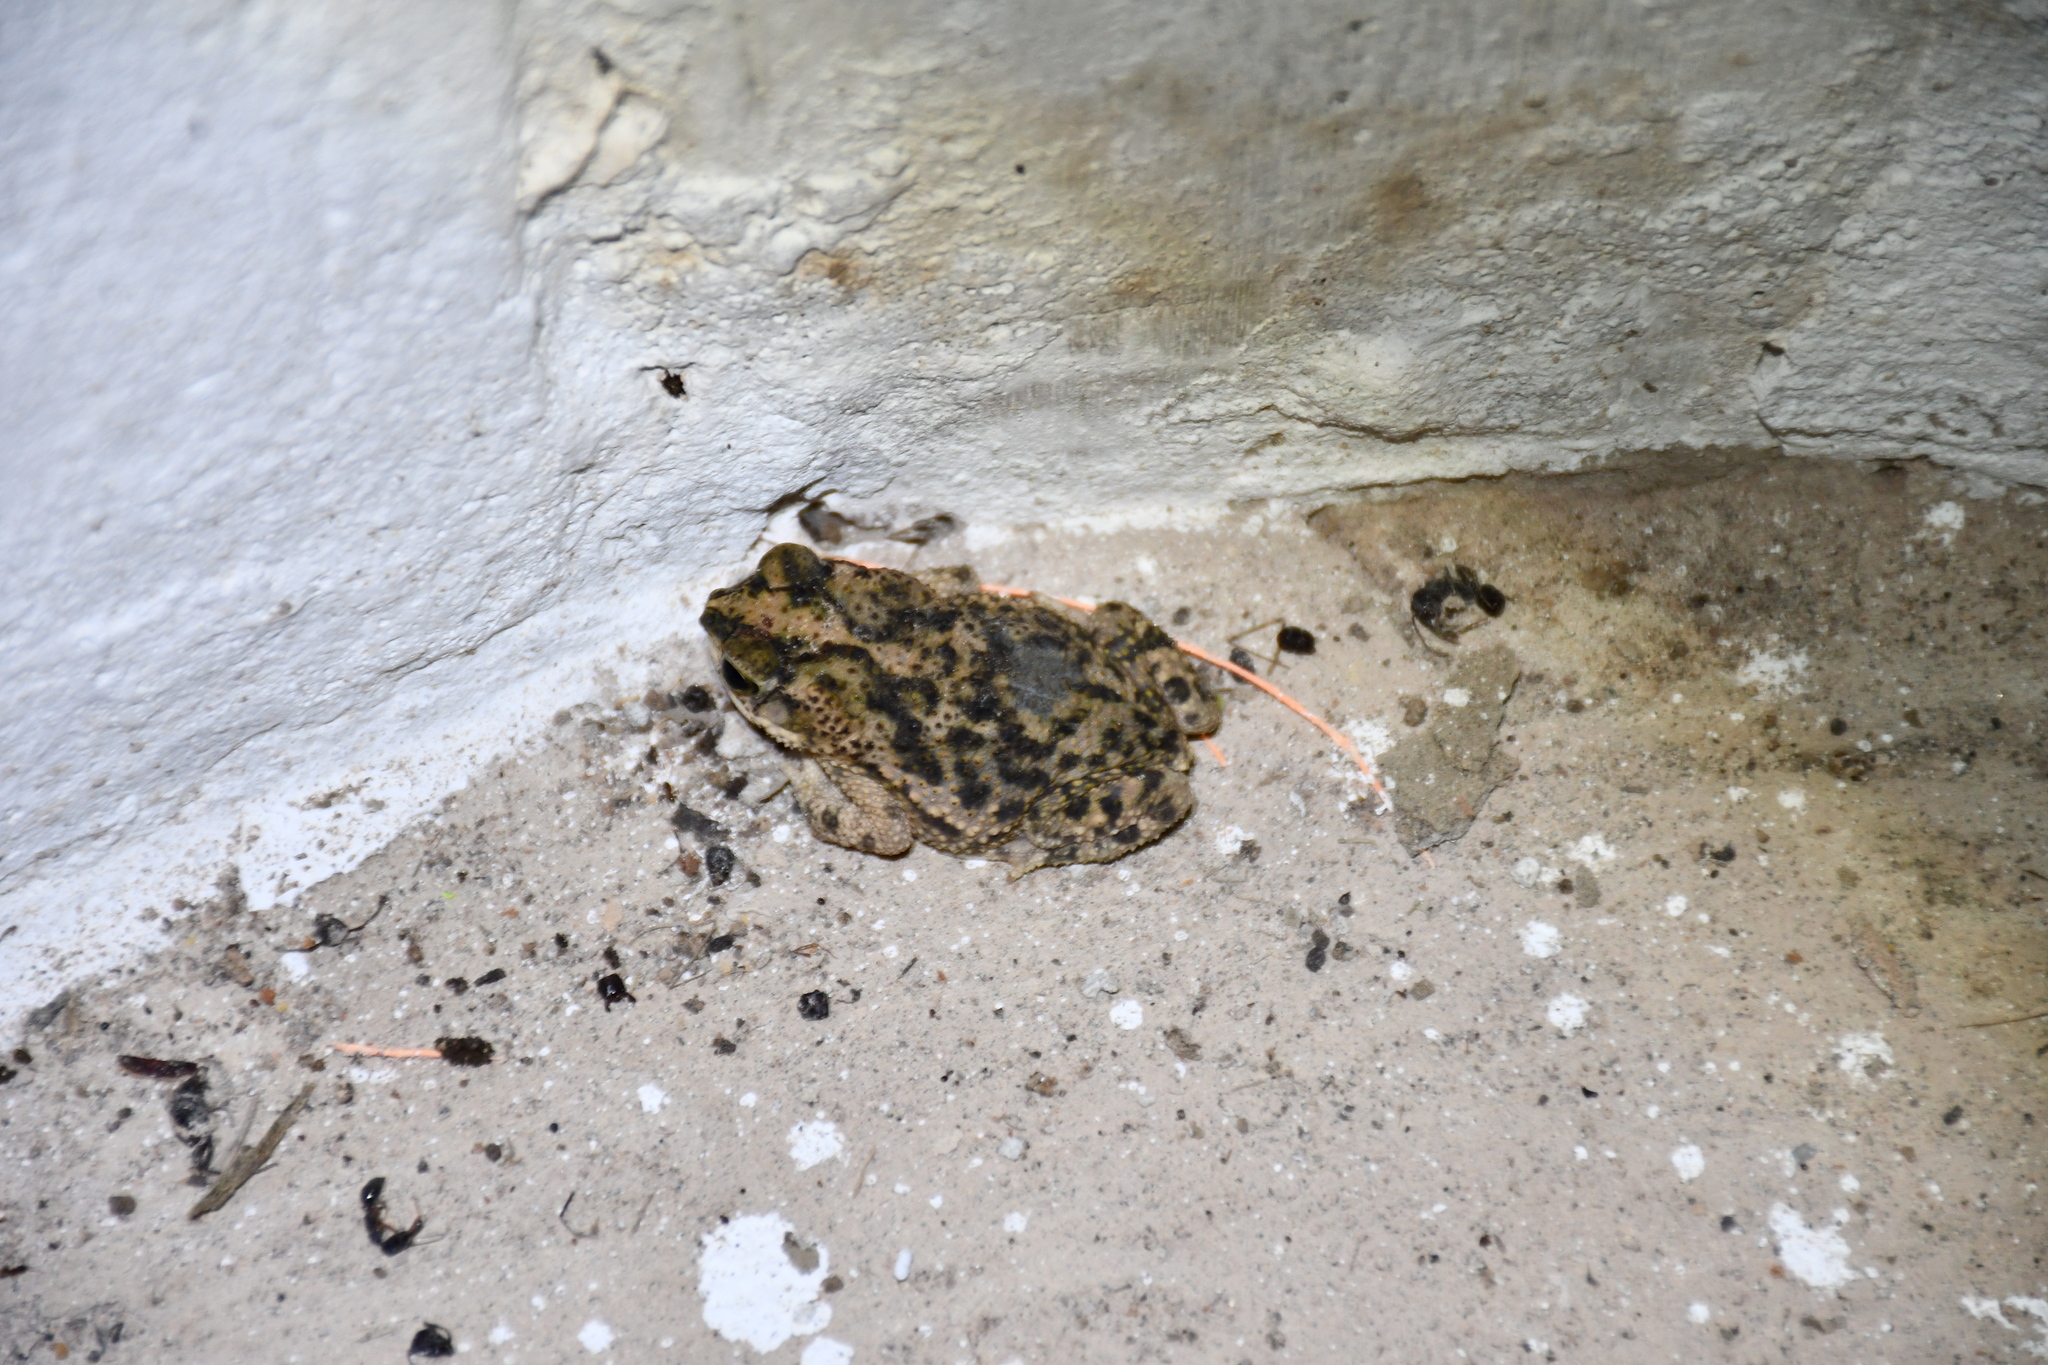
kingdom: Animalia
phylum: Chordata
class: Amphibia
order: Anura
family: Bufonidae
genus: Rhinella
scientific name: Rhinella major
